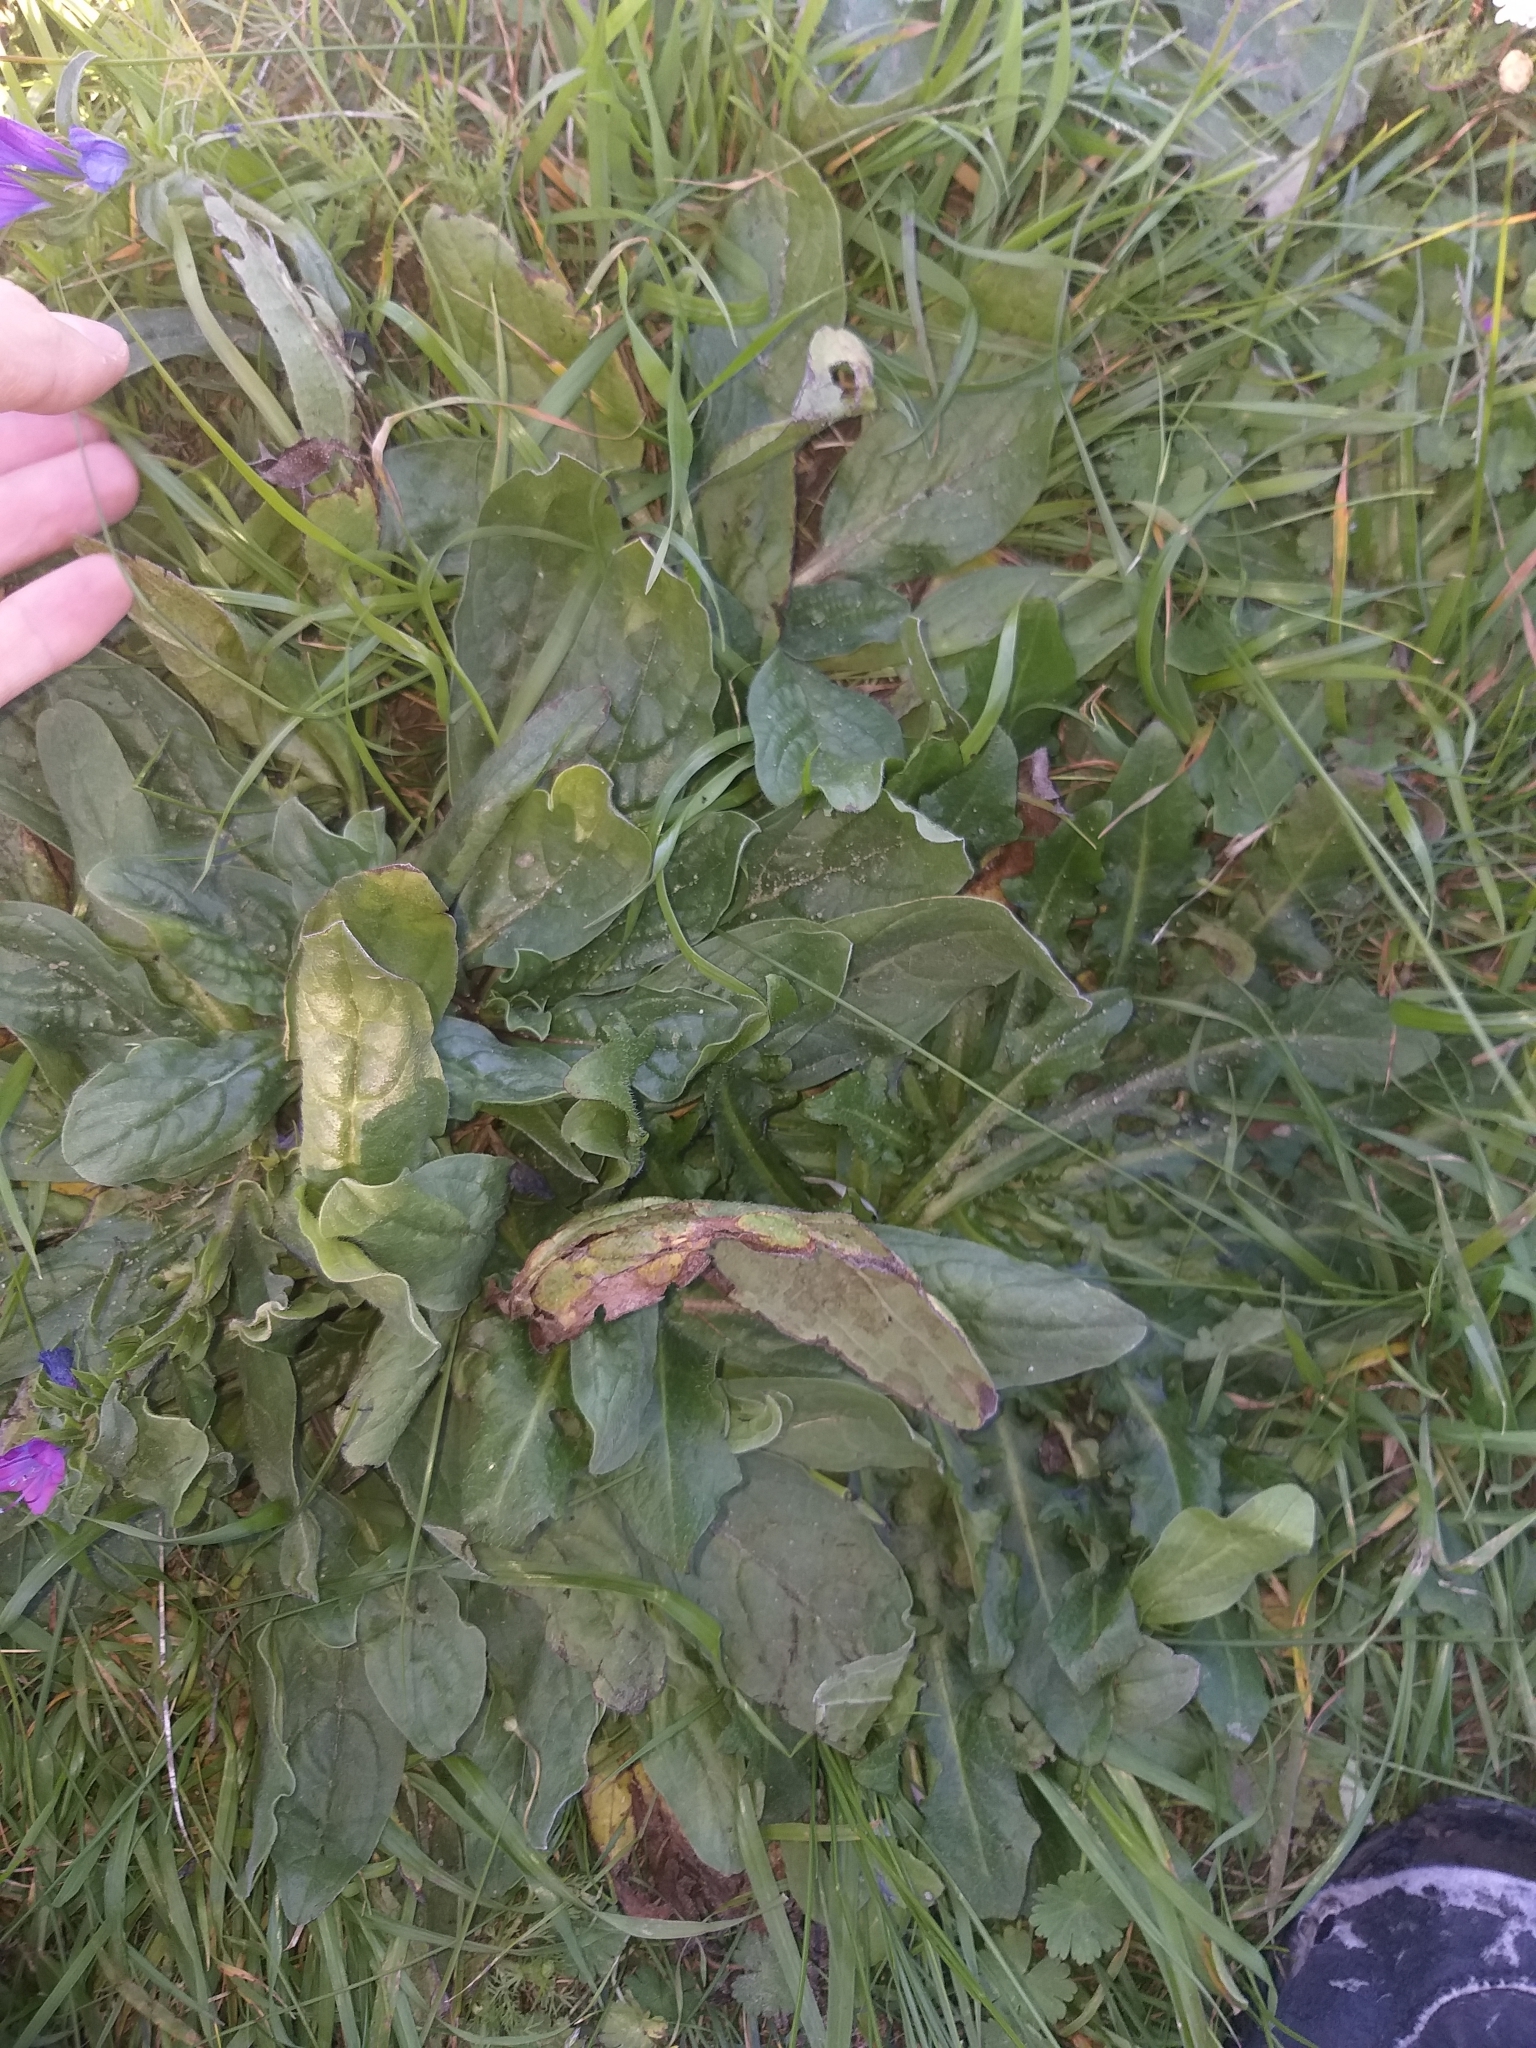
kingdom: Plantae
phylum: Tracheophyta
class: Magnoliopsida
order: Boraginales
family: Boraginaceae
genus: Echium
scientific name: Echium plantagineum
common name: Purple viper's-bugloss
